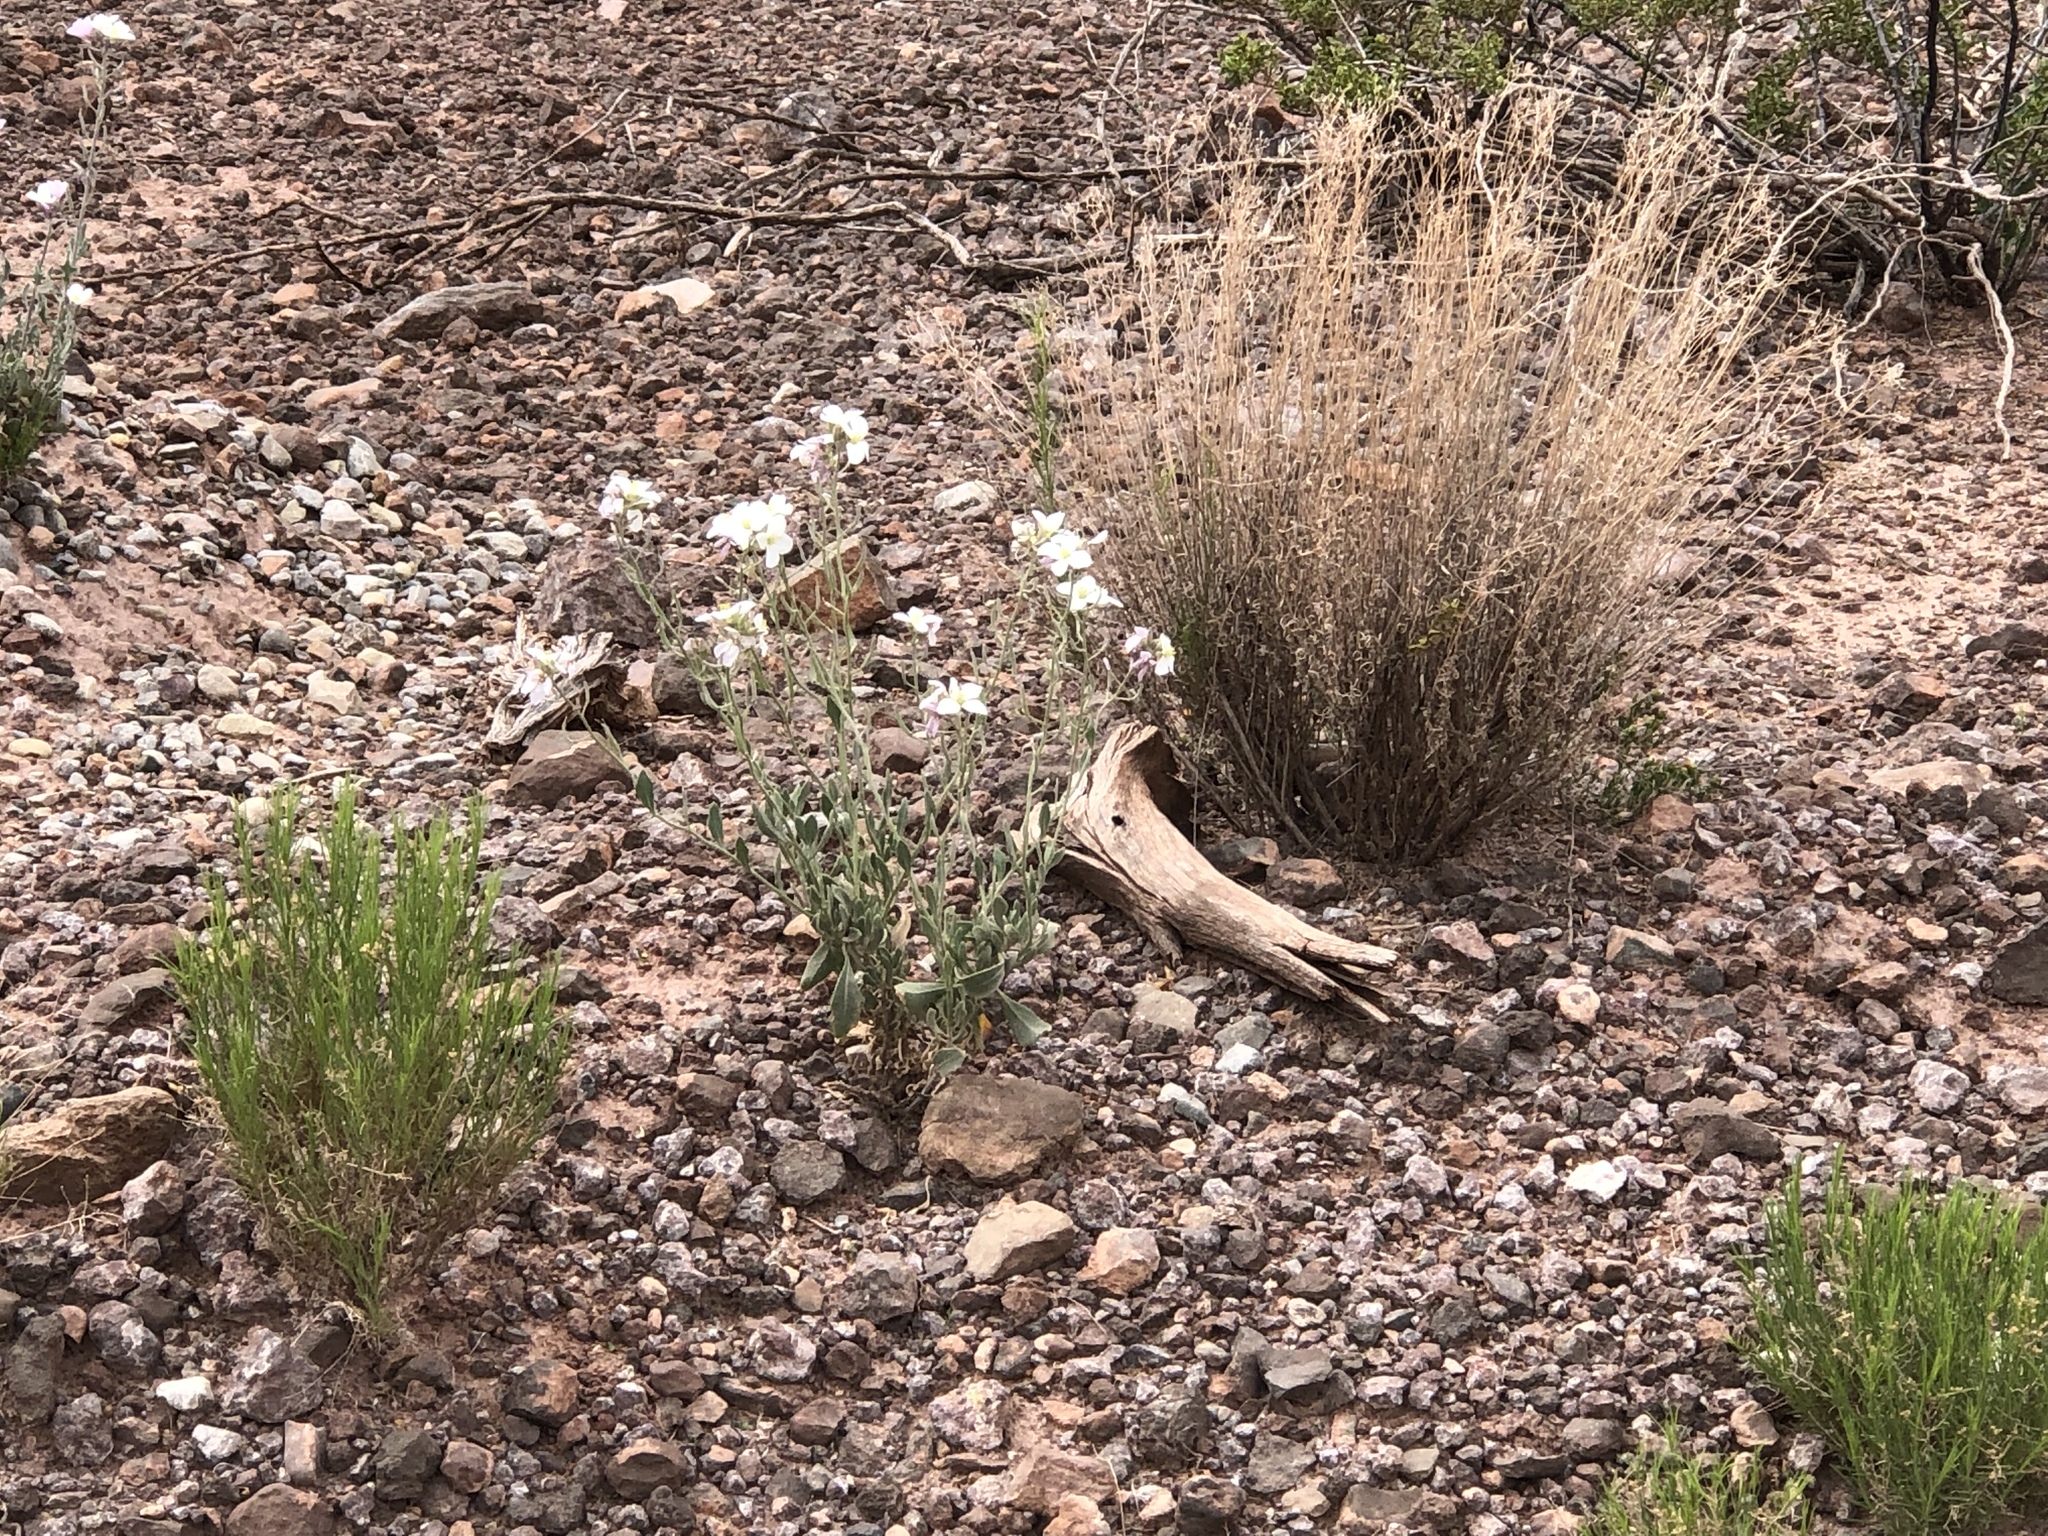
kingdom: Plantae
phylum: Tracheophyta
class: Magnoliopsida
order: Brassicales
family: Brassicaceae
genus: Nerisyrenia
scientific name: Nerisyrenia camporum
